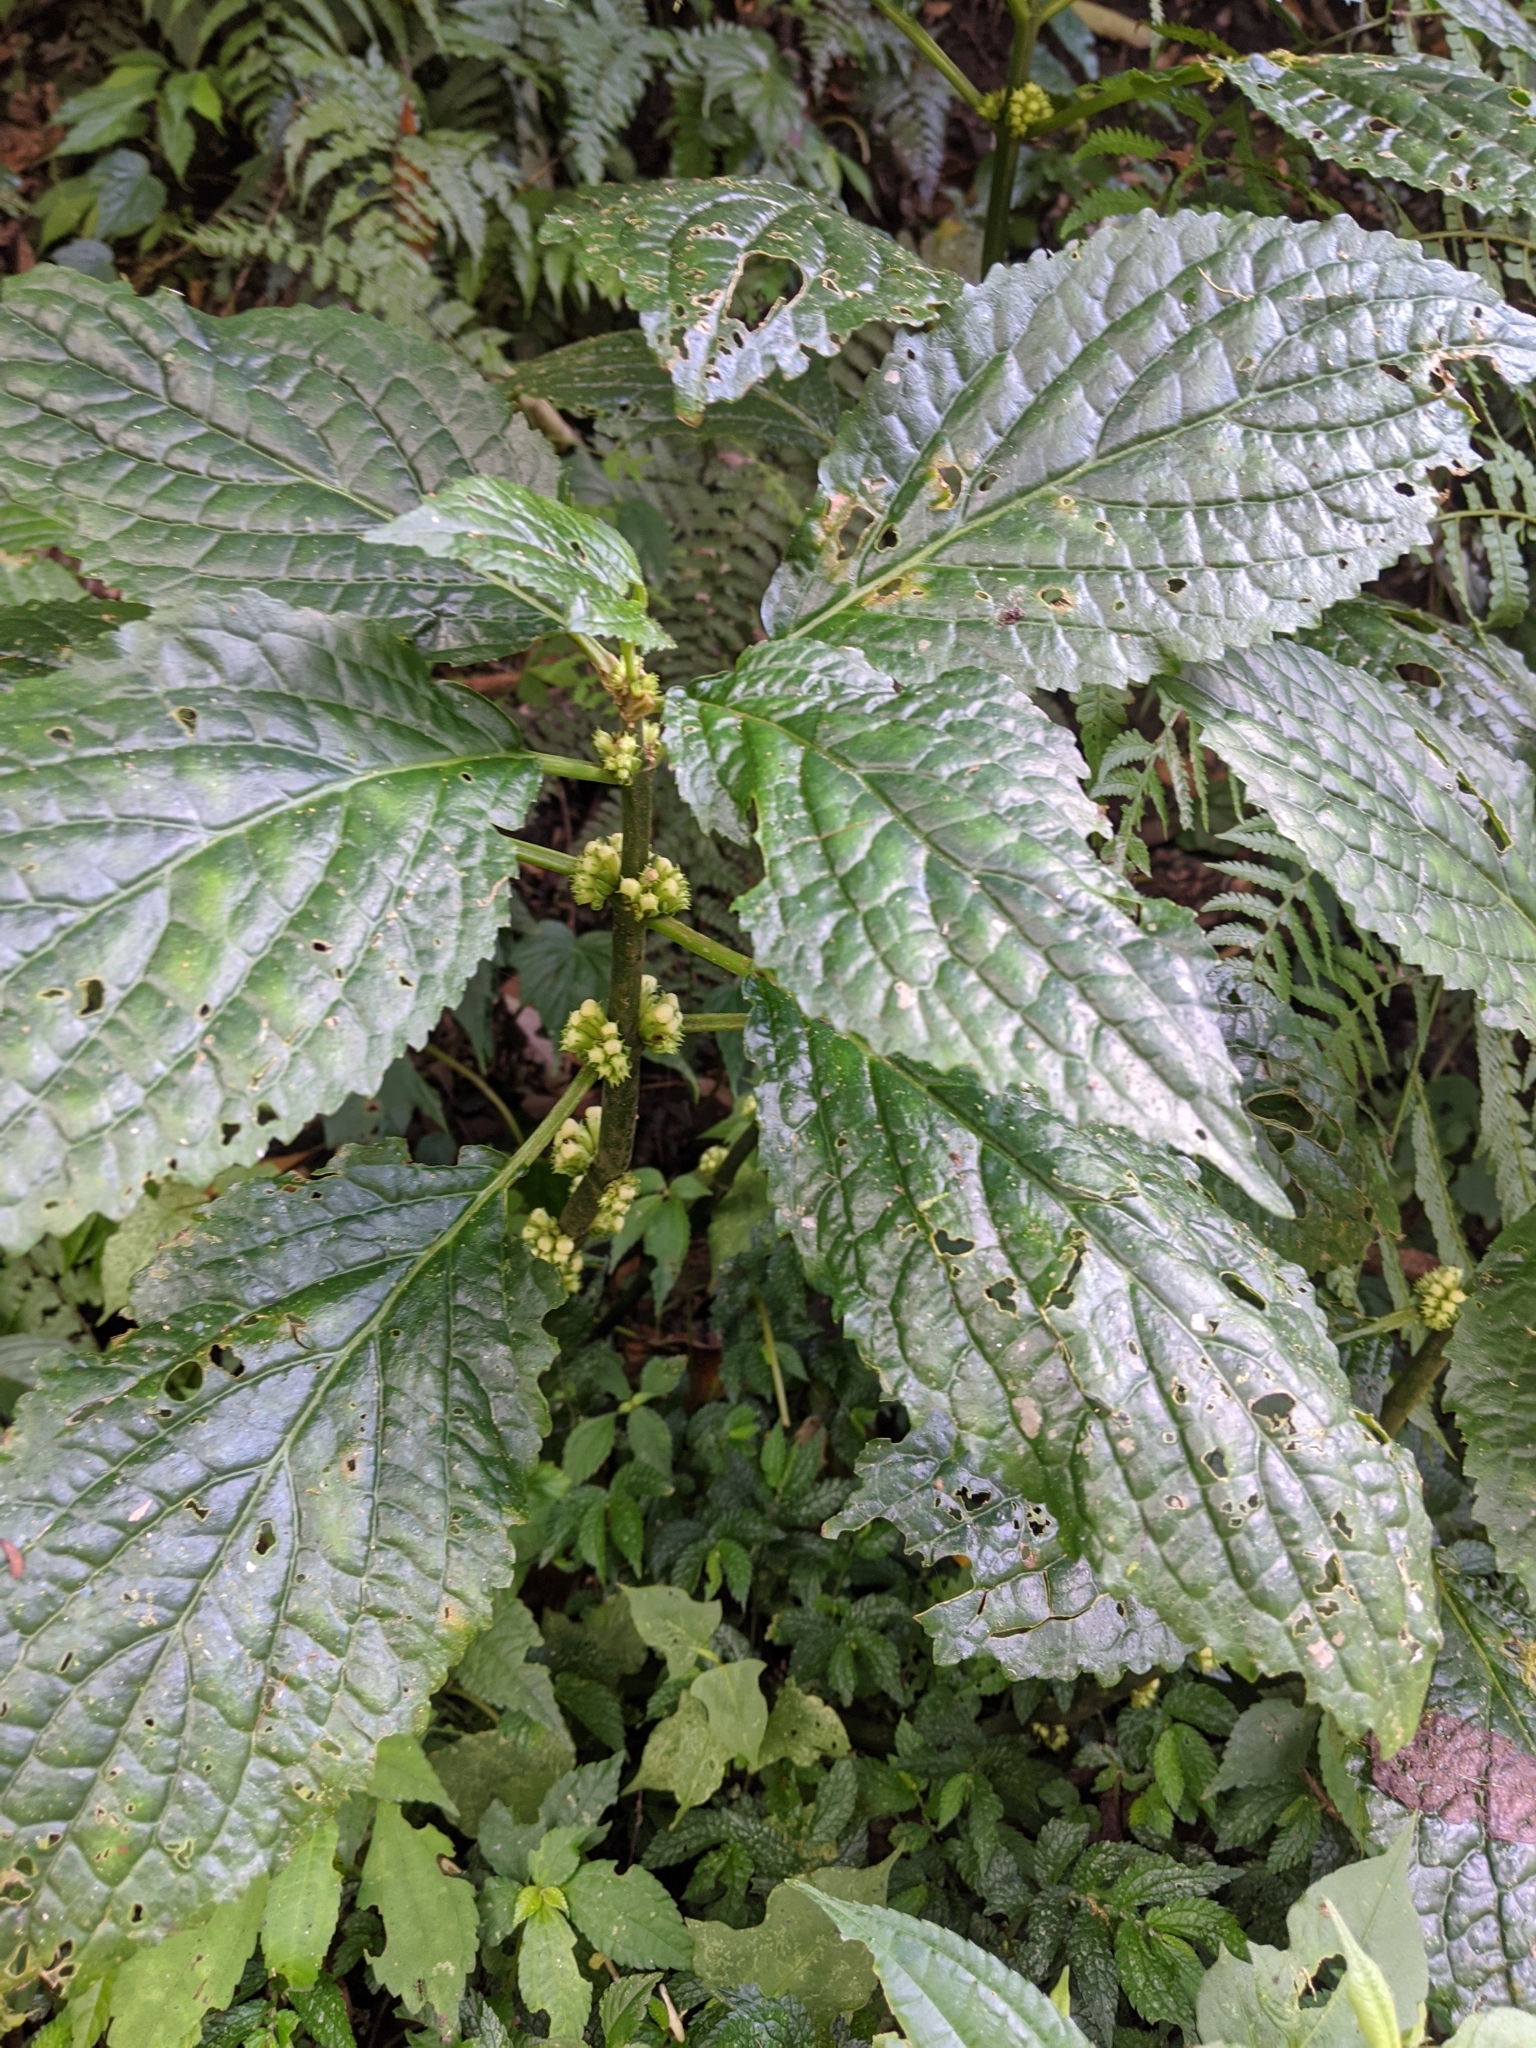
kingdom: Plantae
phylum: Tracheophyta
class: Magnoliopsida
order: Lamiales
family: Lamiaceae
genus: Paraphlomis
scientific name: Paraphlomis javanica
